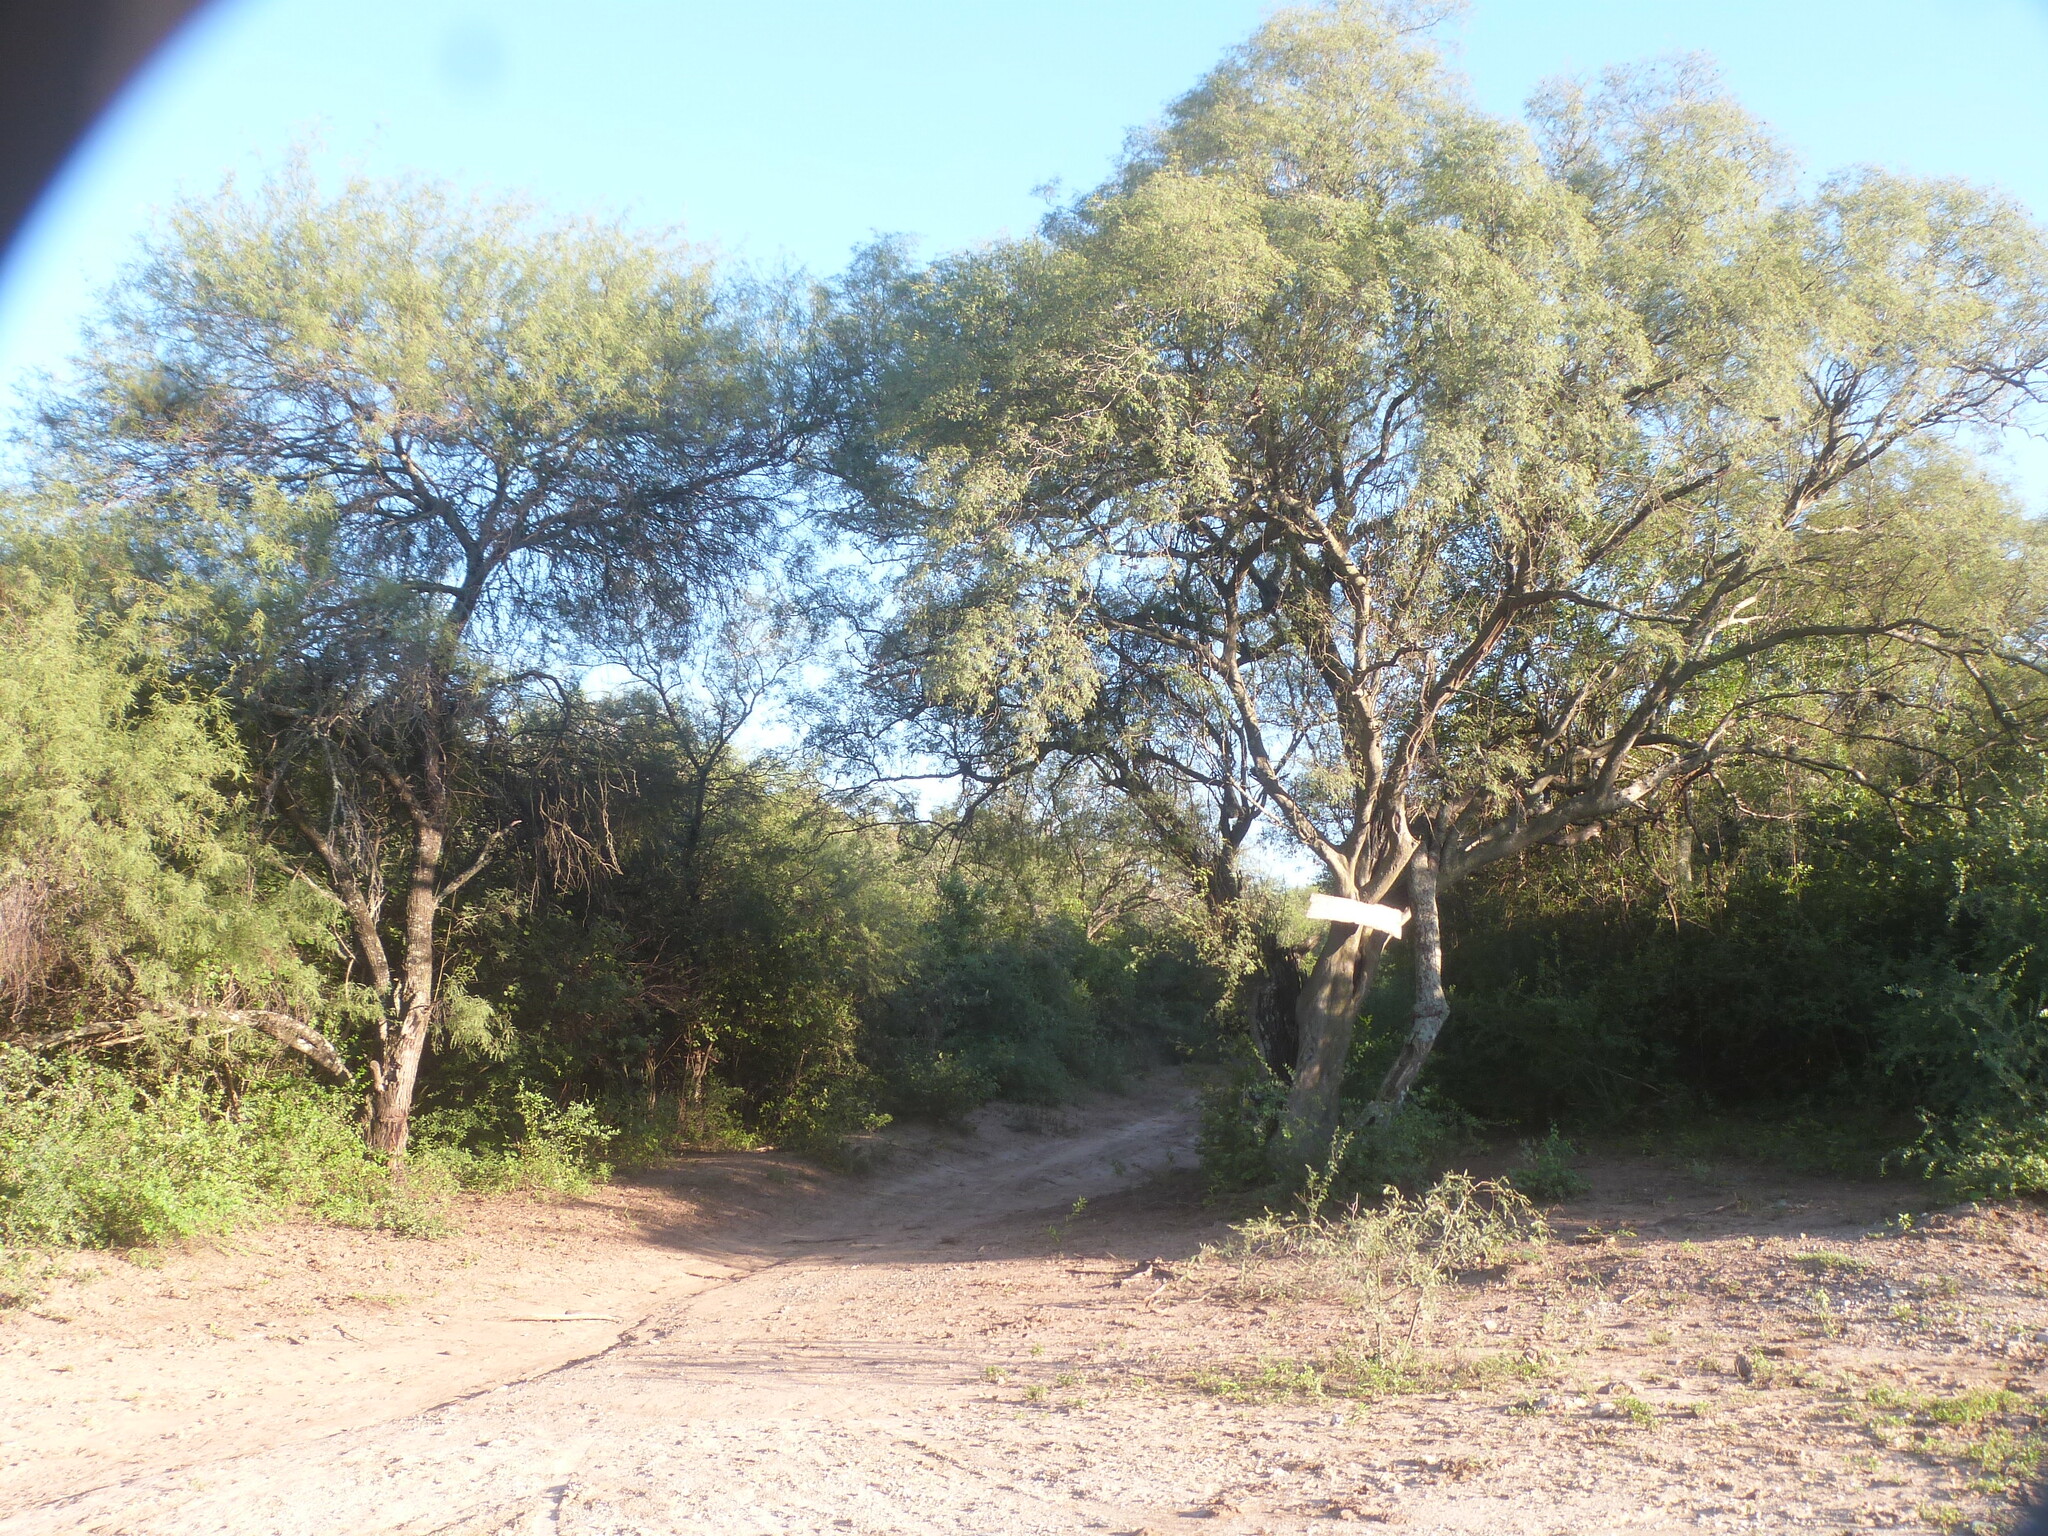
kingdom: Plantae
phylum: Tracheophyta
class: Magnoliopsida
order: Fabales
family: Fabaceae
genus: Libidibia
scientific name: Libidibia paraguariensis
